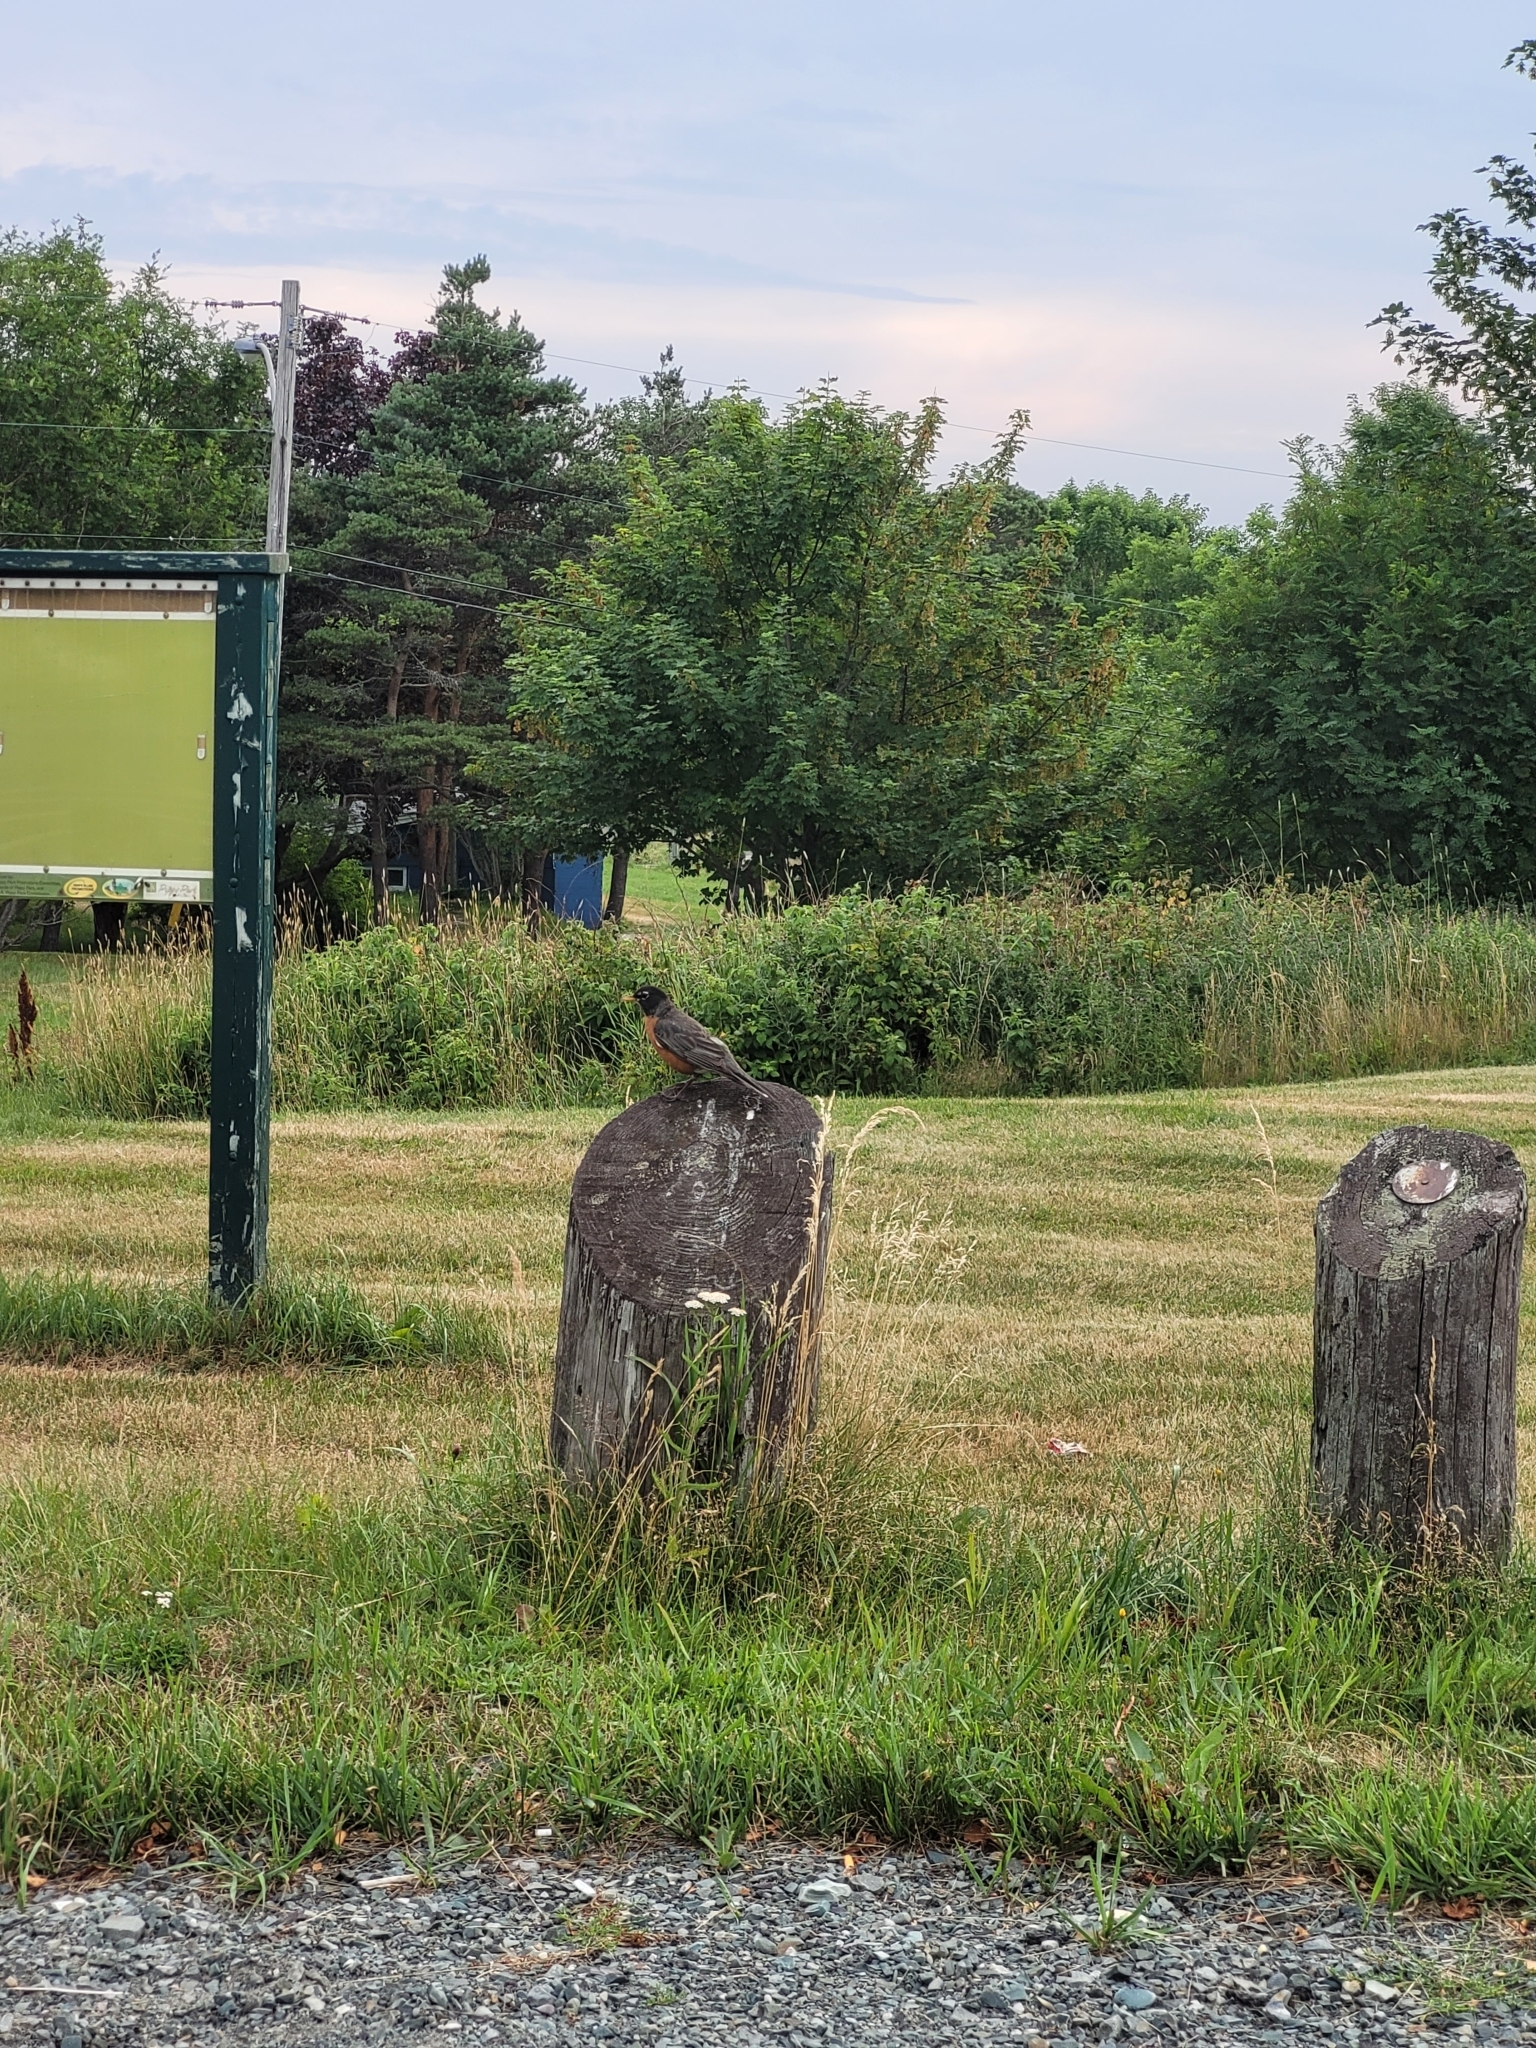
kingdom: Animalia
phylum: Chordata
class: Aves
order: Passeriformes
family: Turdidae
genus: Turdus
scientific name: Turdus migratorius
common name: American robin
